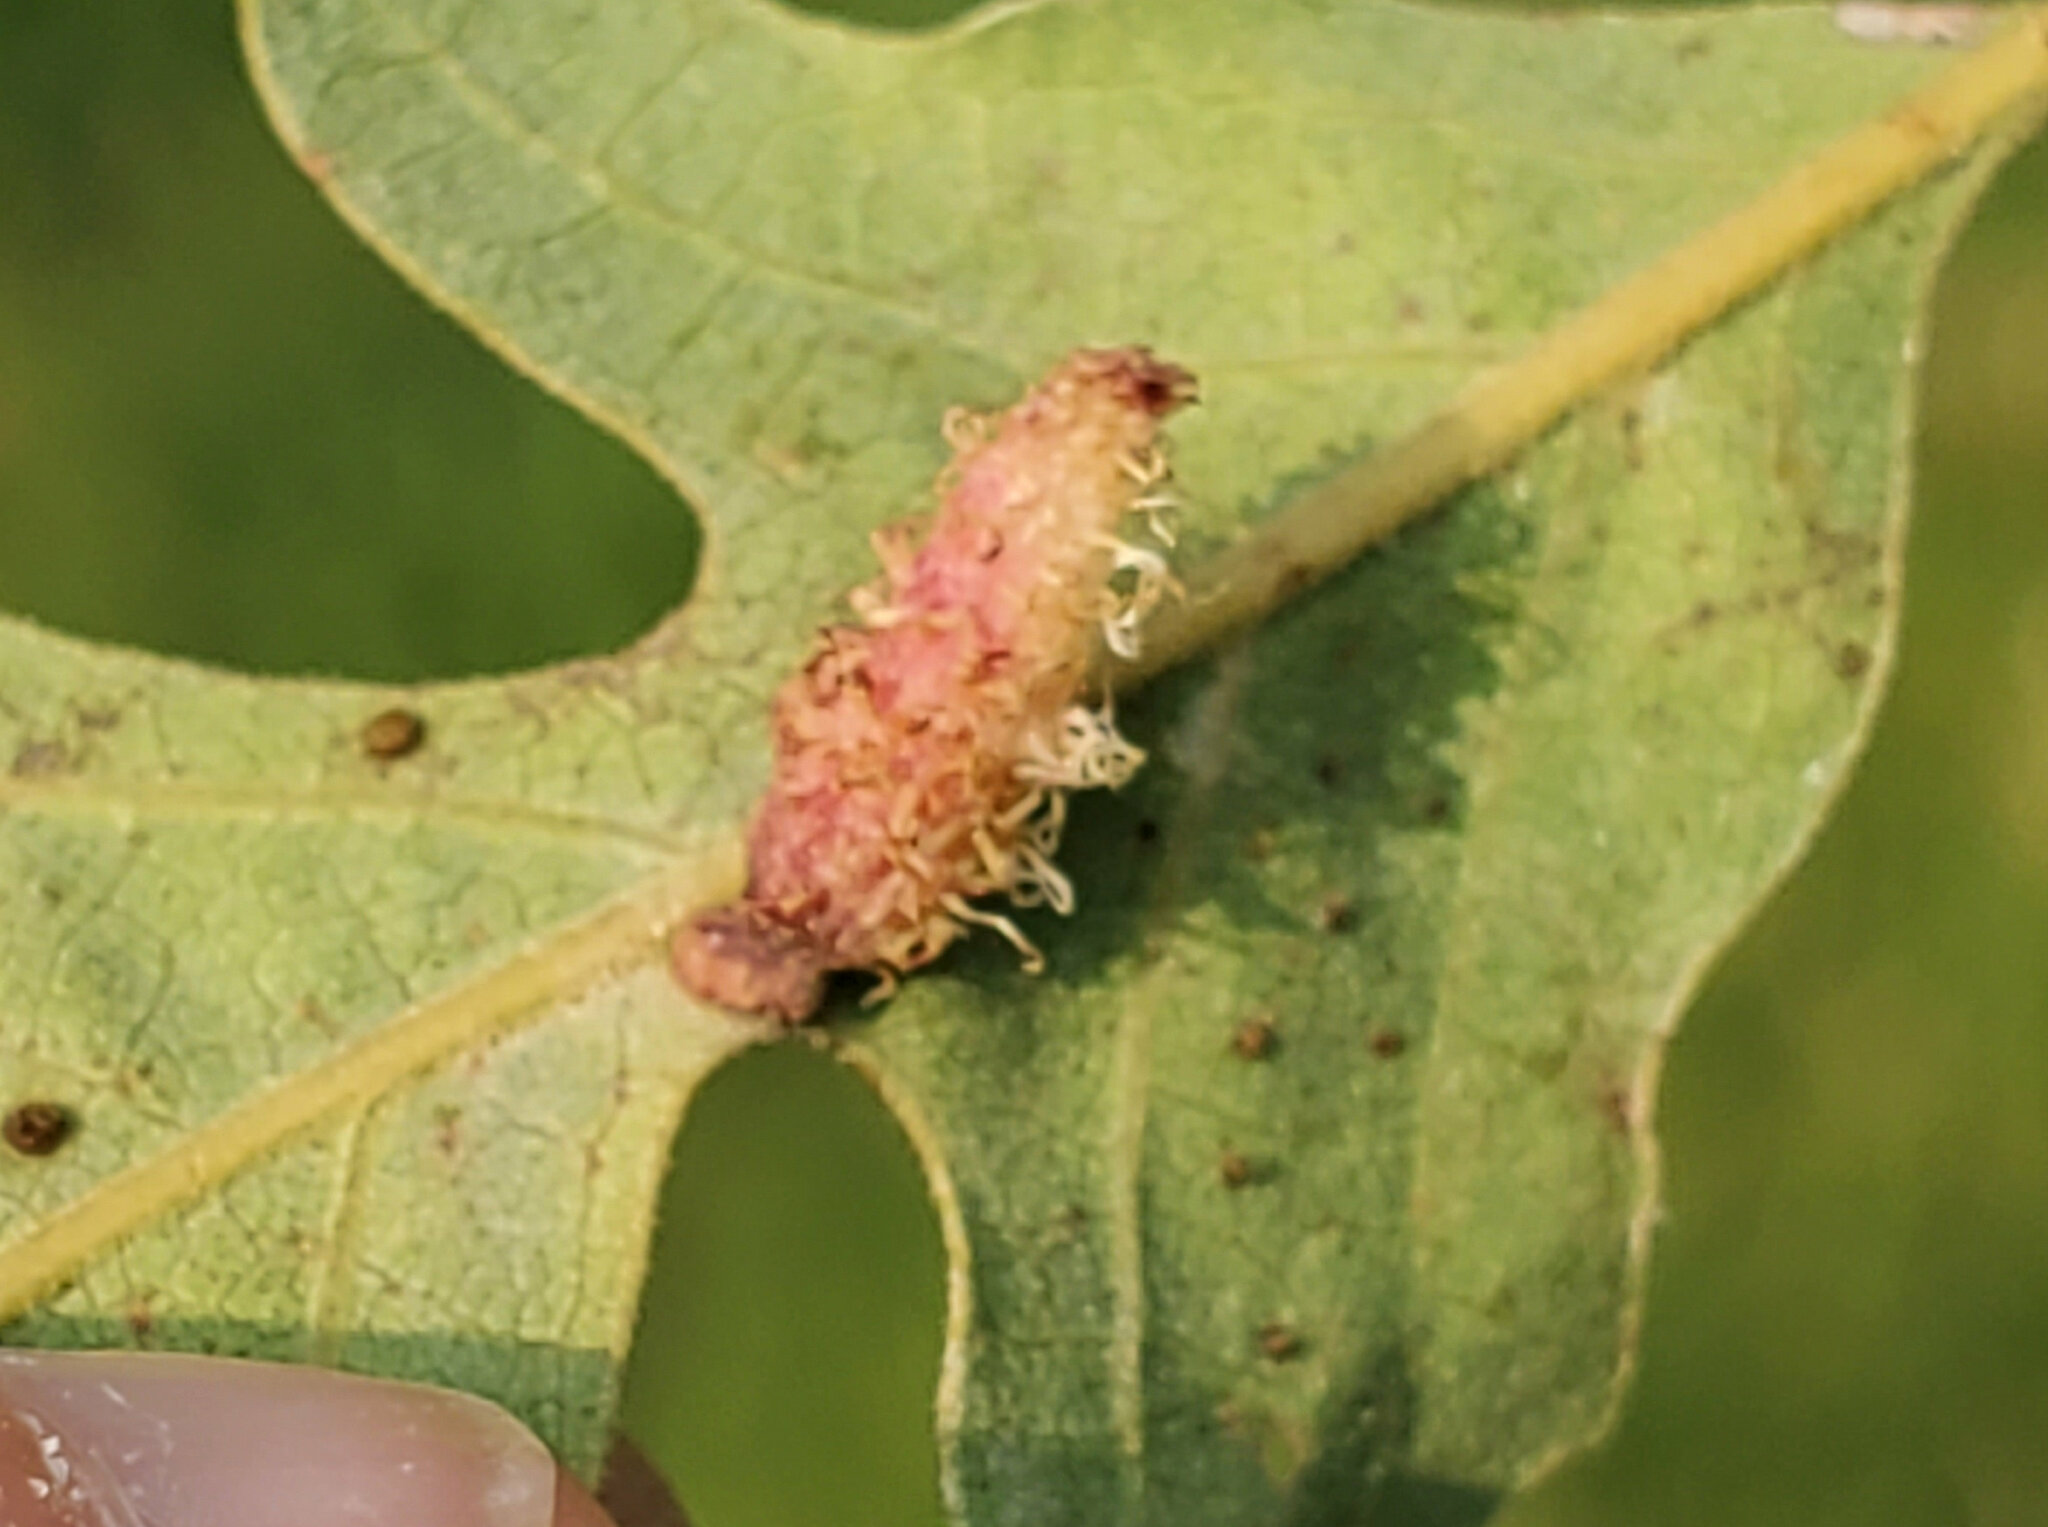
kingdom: Animalia
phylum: Arthropoda
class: Insecta
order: Hymenoptera
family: Cynipidae
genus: Andricus
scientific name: Andricus
